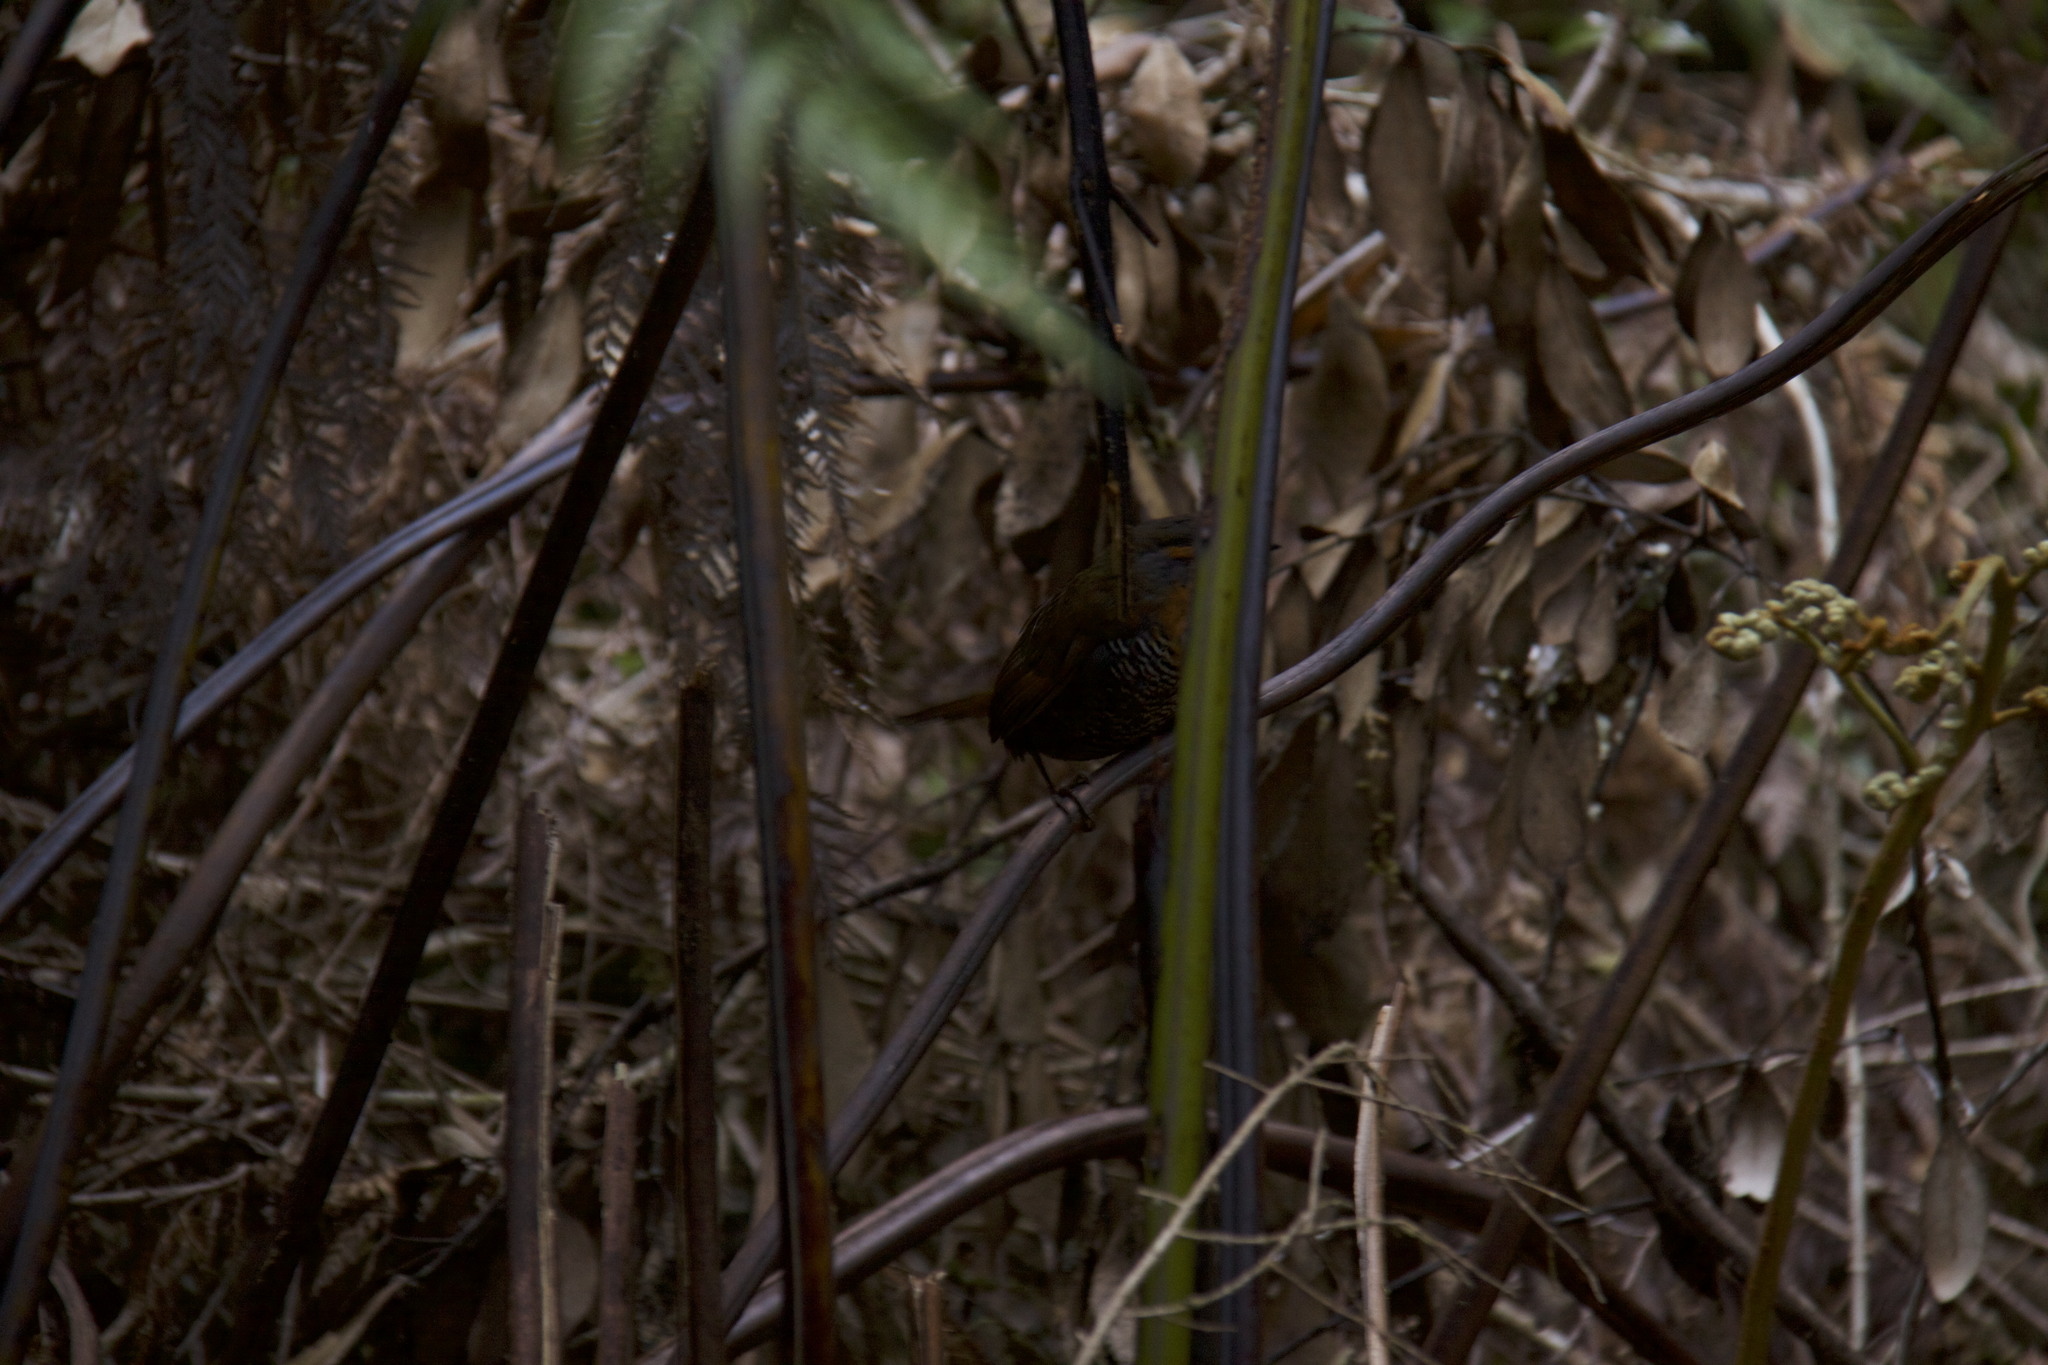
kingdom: Animalia
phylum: Chordata
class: Aves
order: Passeriformes
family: Rhinocryptidae
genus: Scelorchilus
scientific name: Scelorchilus rubecula
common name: Chucao tapaculo
